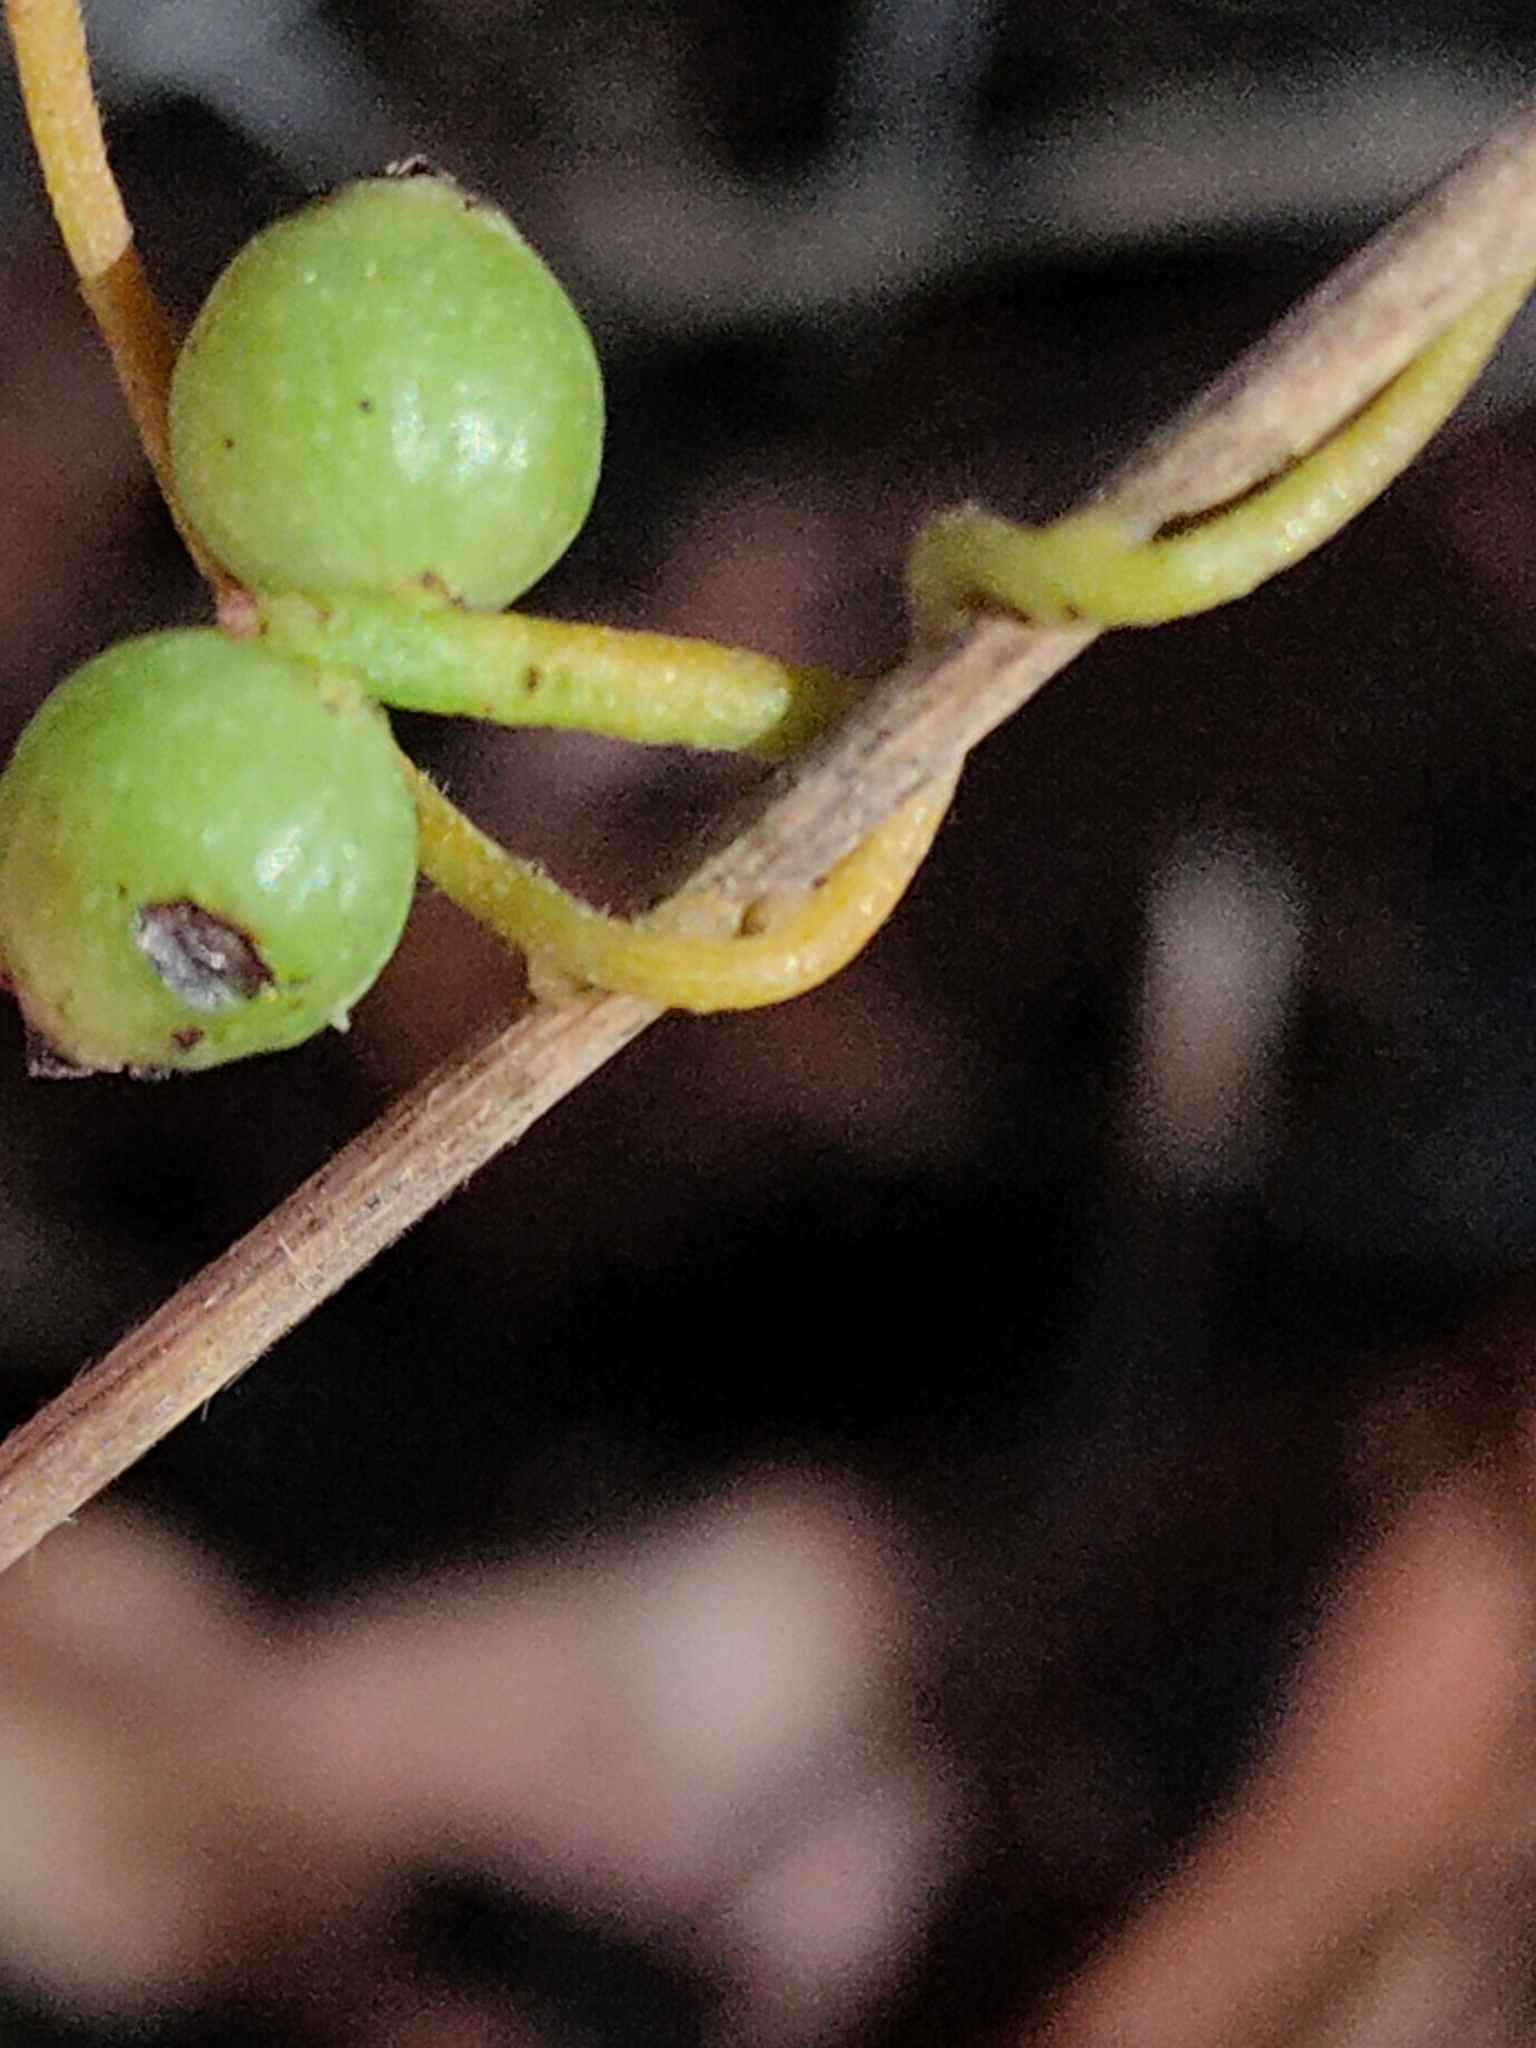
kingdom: Plantae
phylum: Tracheophyta
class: Magnoliopsida
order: Laurales
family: Lauraceae
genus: Cassytha
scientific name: Cassytha filiformis
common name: Dodder-laurel
